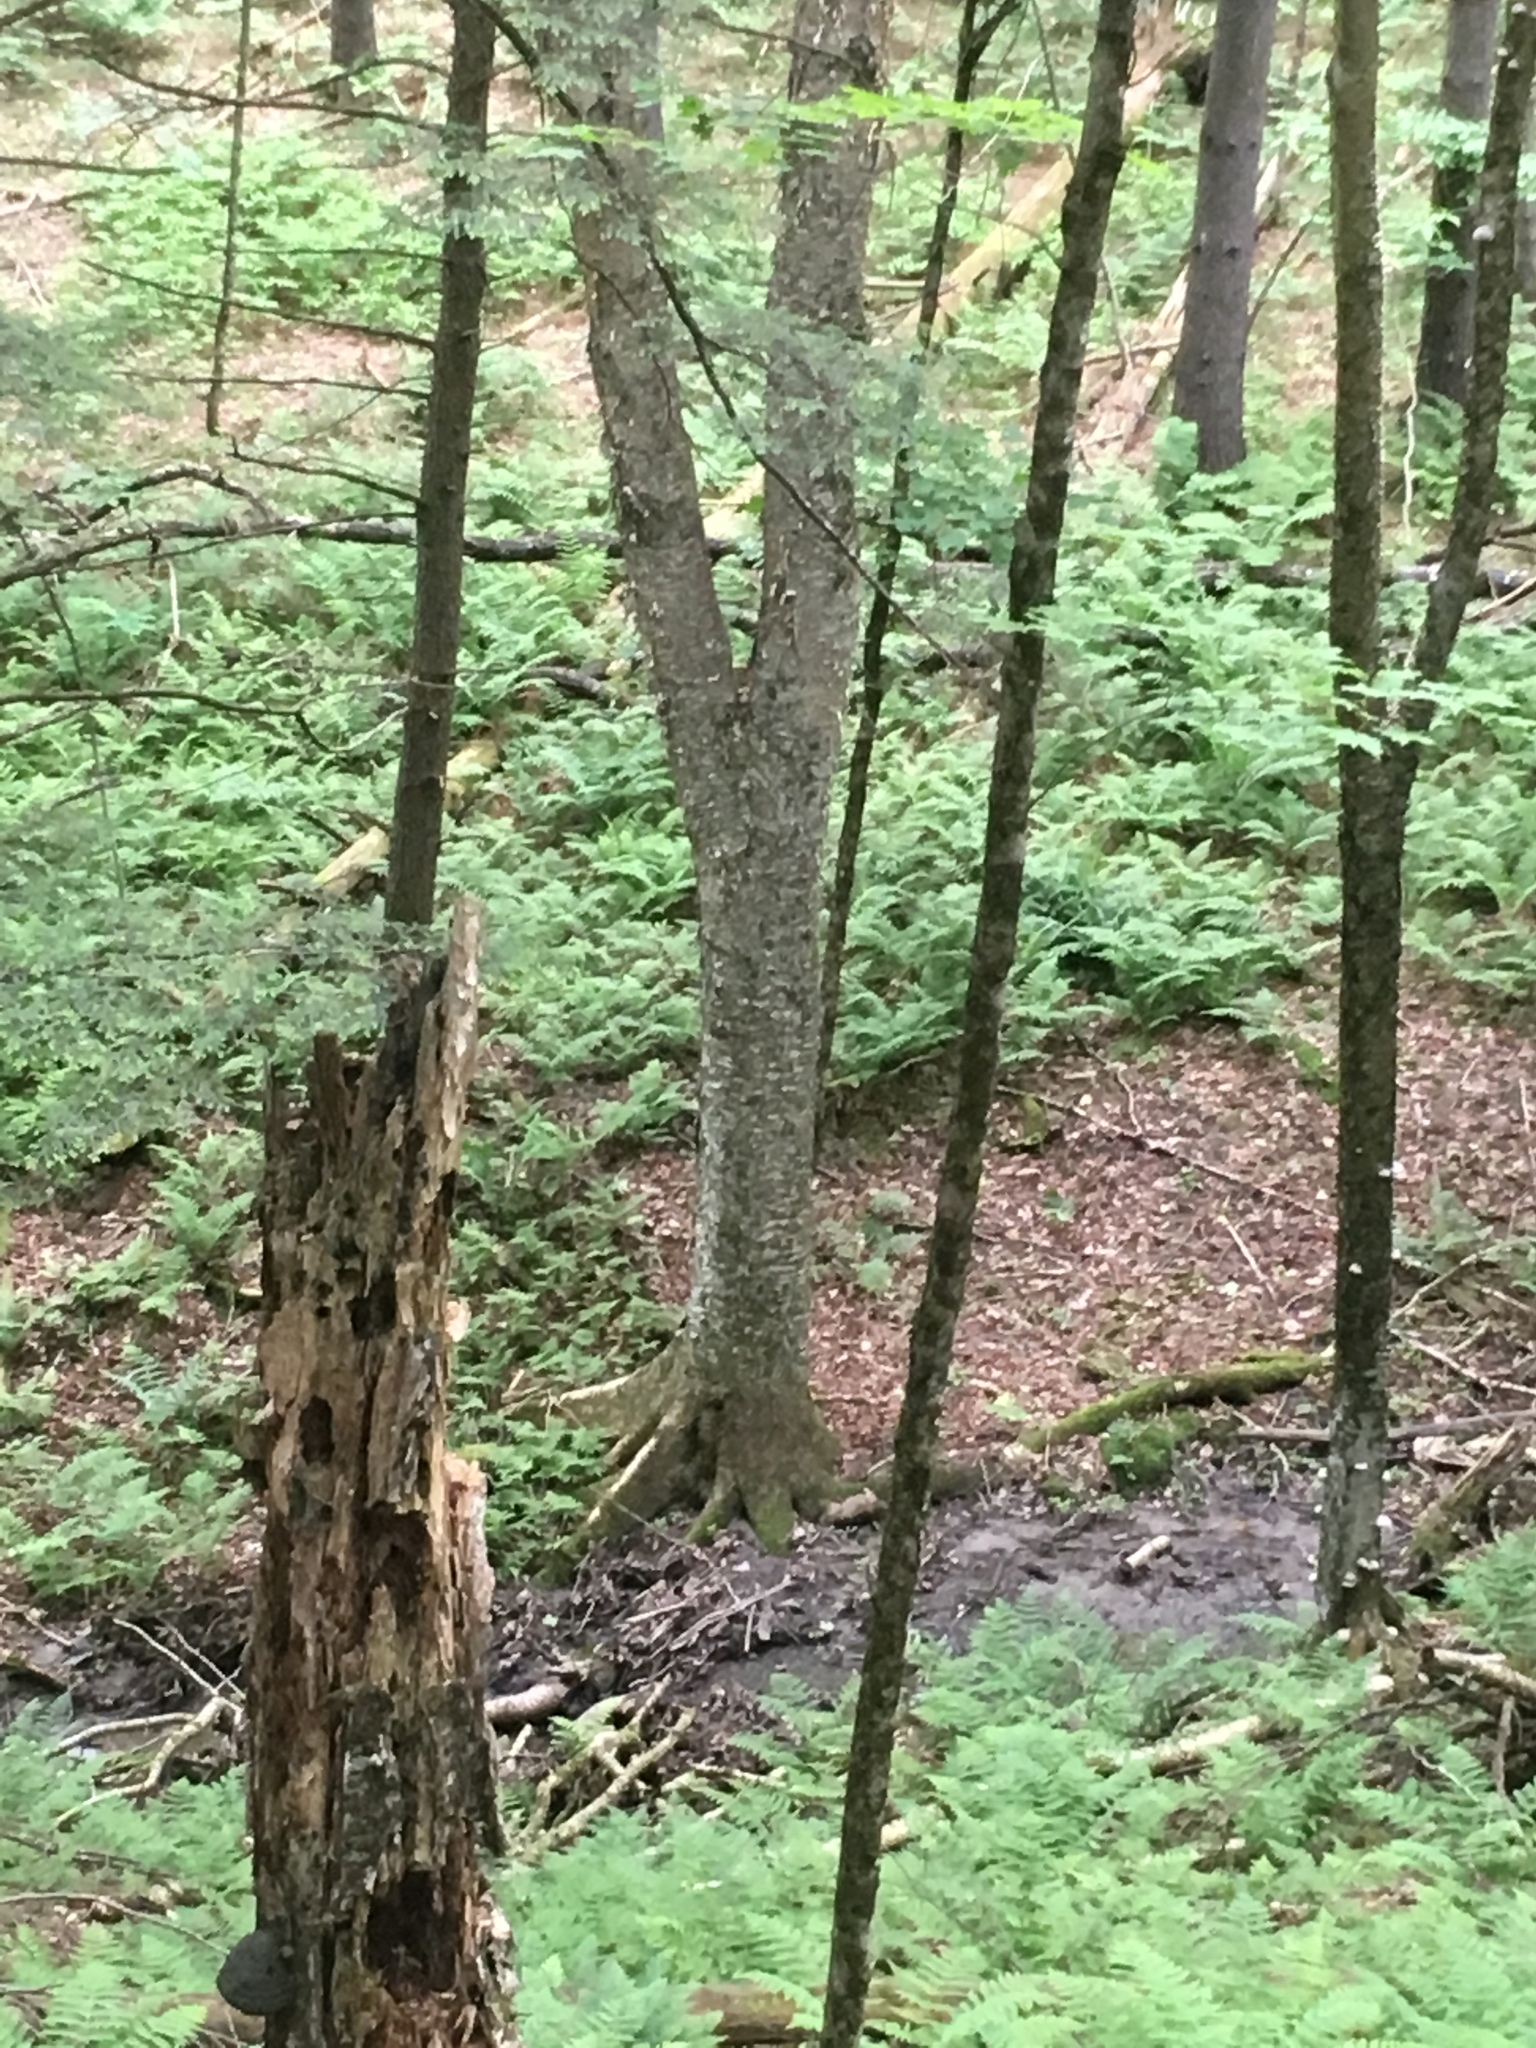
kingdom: Plantae
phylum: Tracheophyta
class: Magnoliopsida
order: Fagales
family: Betulaceae
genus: Betula
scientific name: Betula alleghaniensis
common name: Yellow birch
